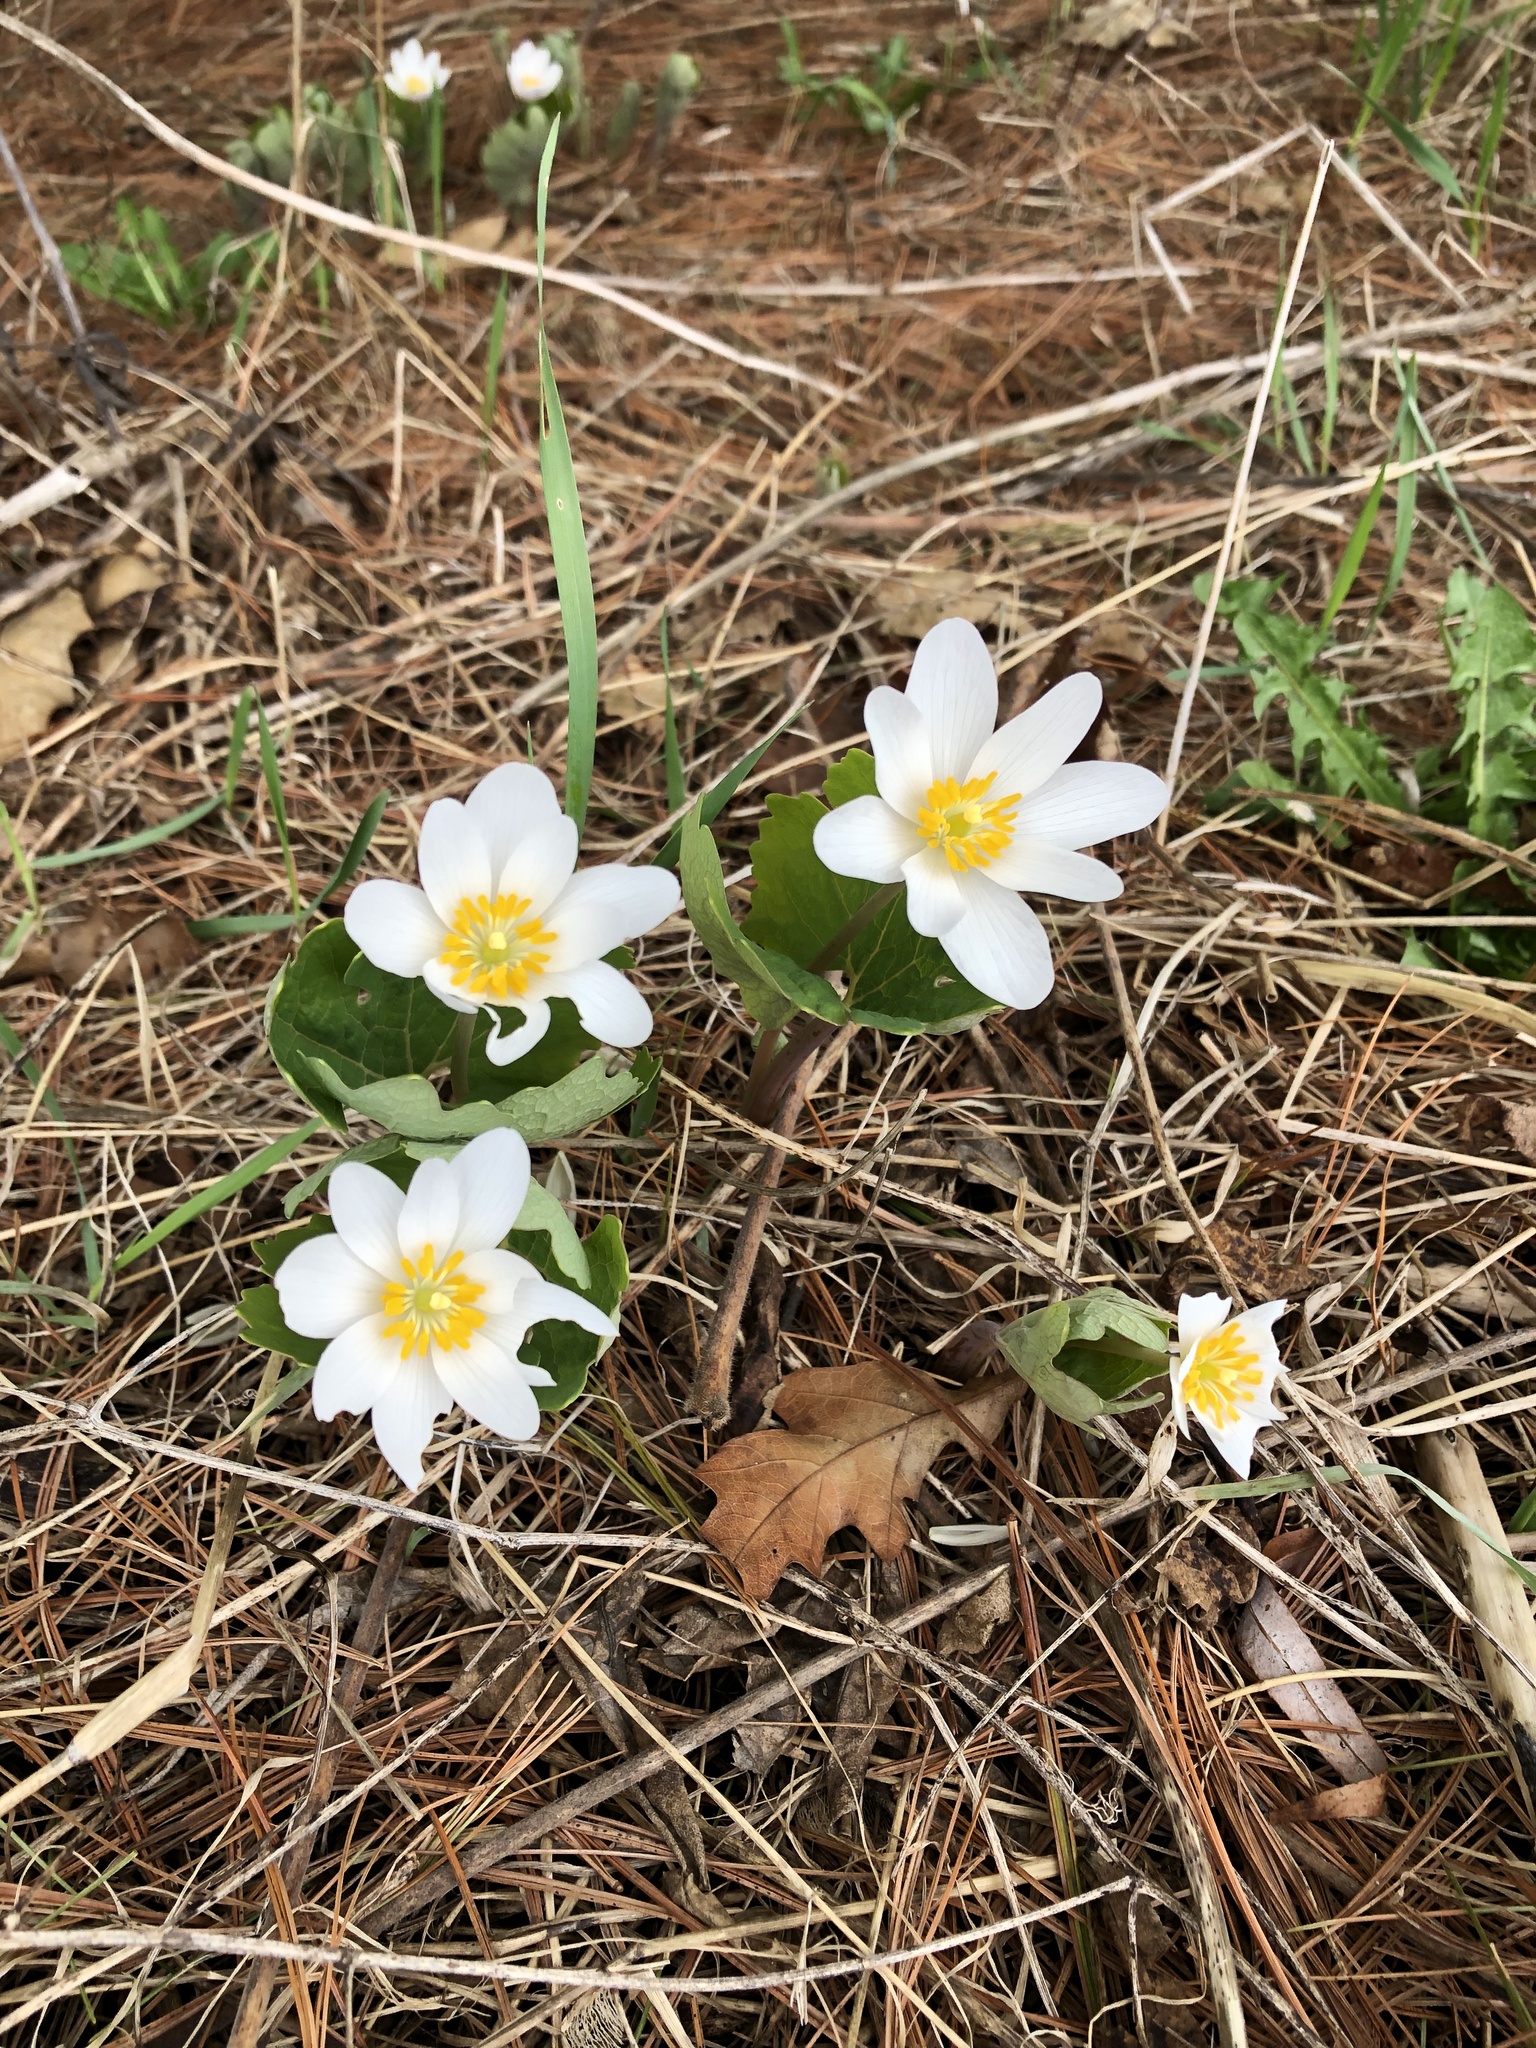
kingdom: Plantae
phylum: Tracheophyta
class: Magnoliopsida
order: Ranunculales
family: Papaveraceae
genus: Sanguinaria
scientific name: Sanguinaria canadensis
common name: Bloodroot
